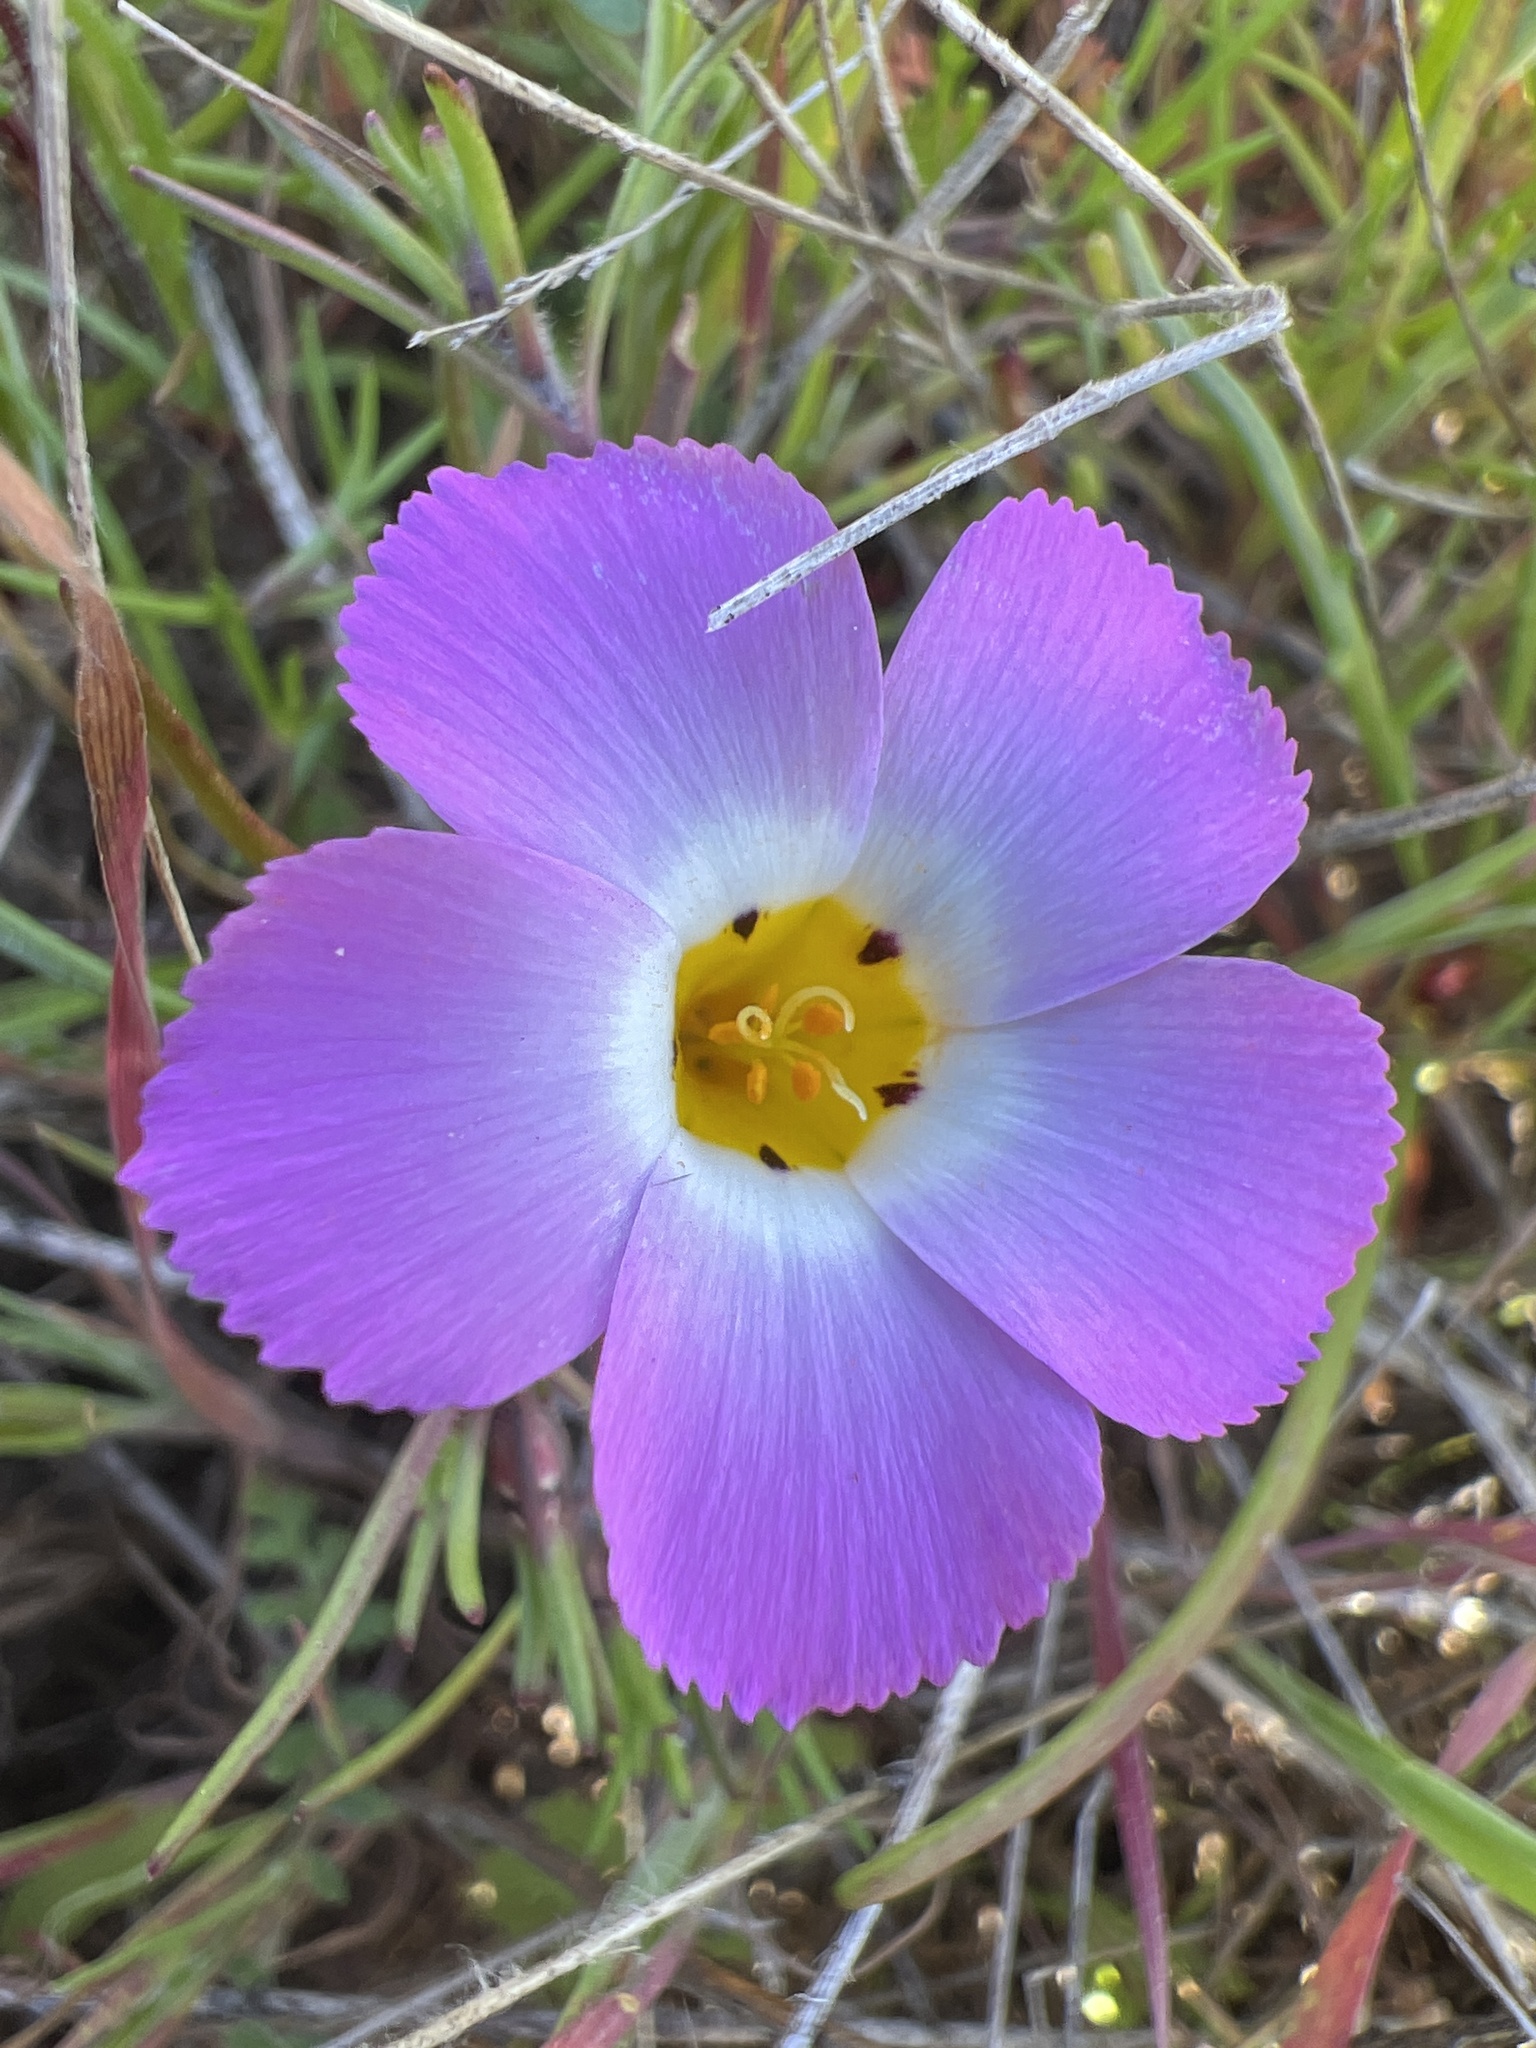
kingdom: Plantae
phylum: Tracheophyta
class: Magnoliopsida
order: Ericales
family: Polemoniaceae
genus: Linanthus
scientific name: Linanthus dianthiflorus
